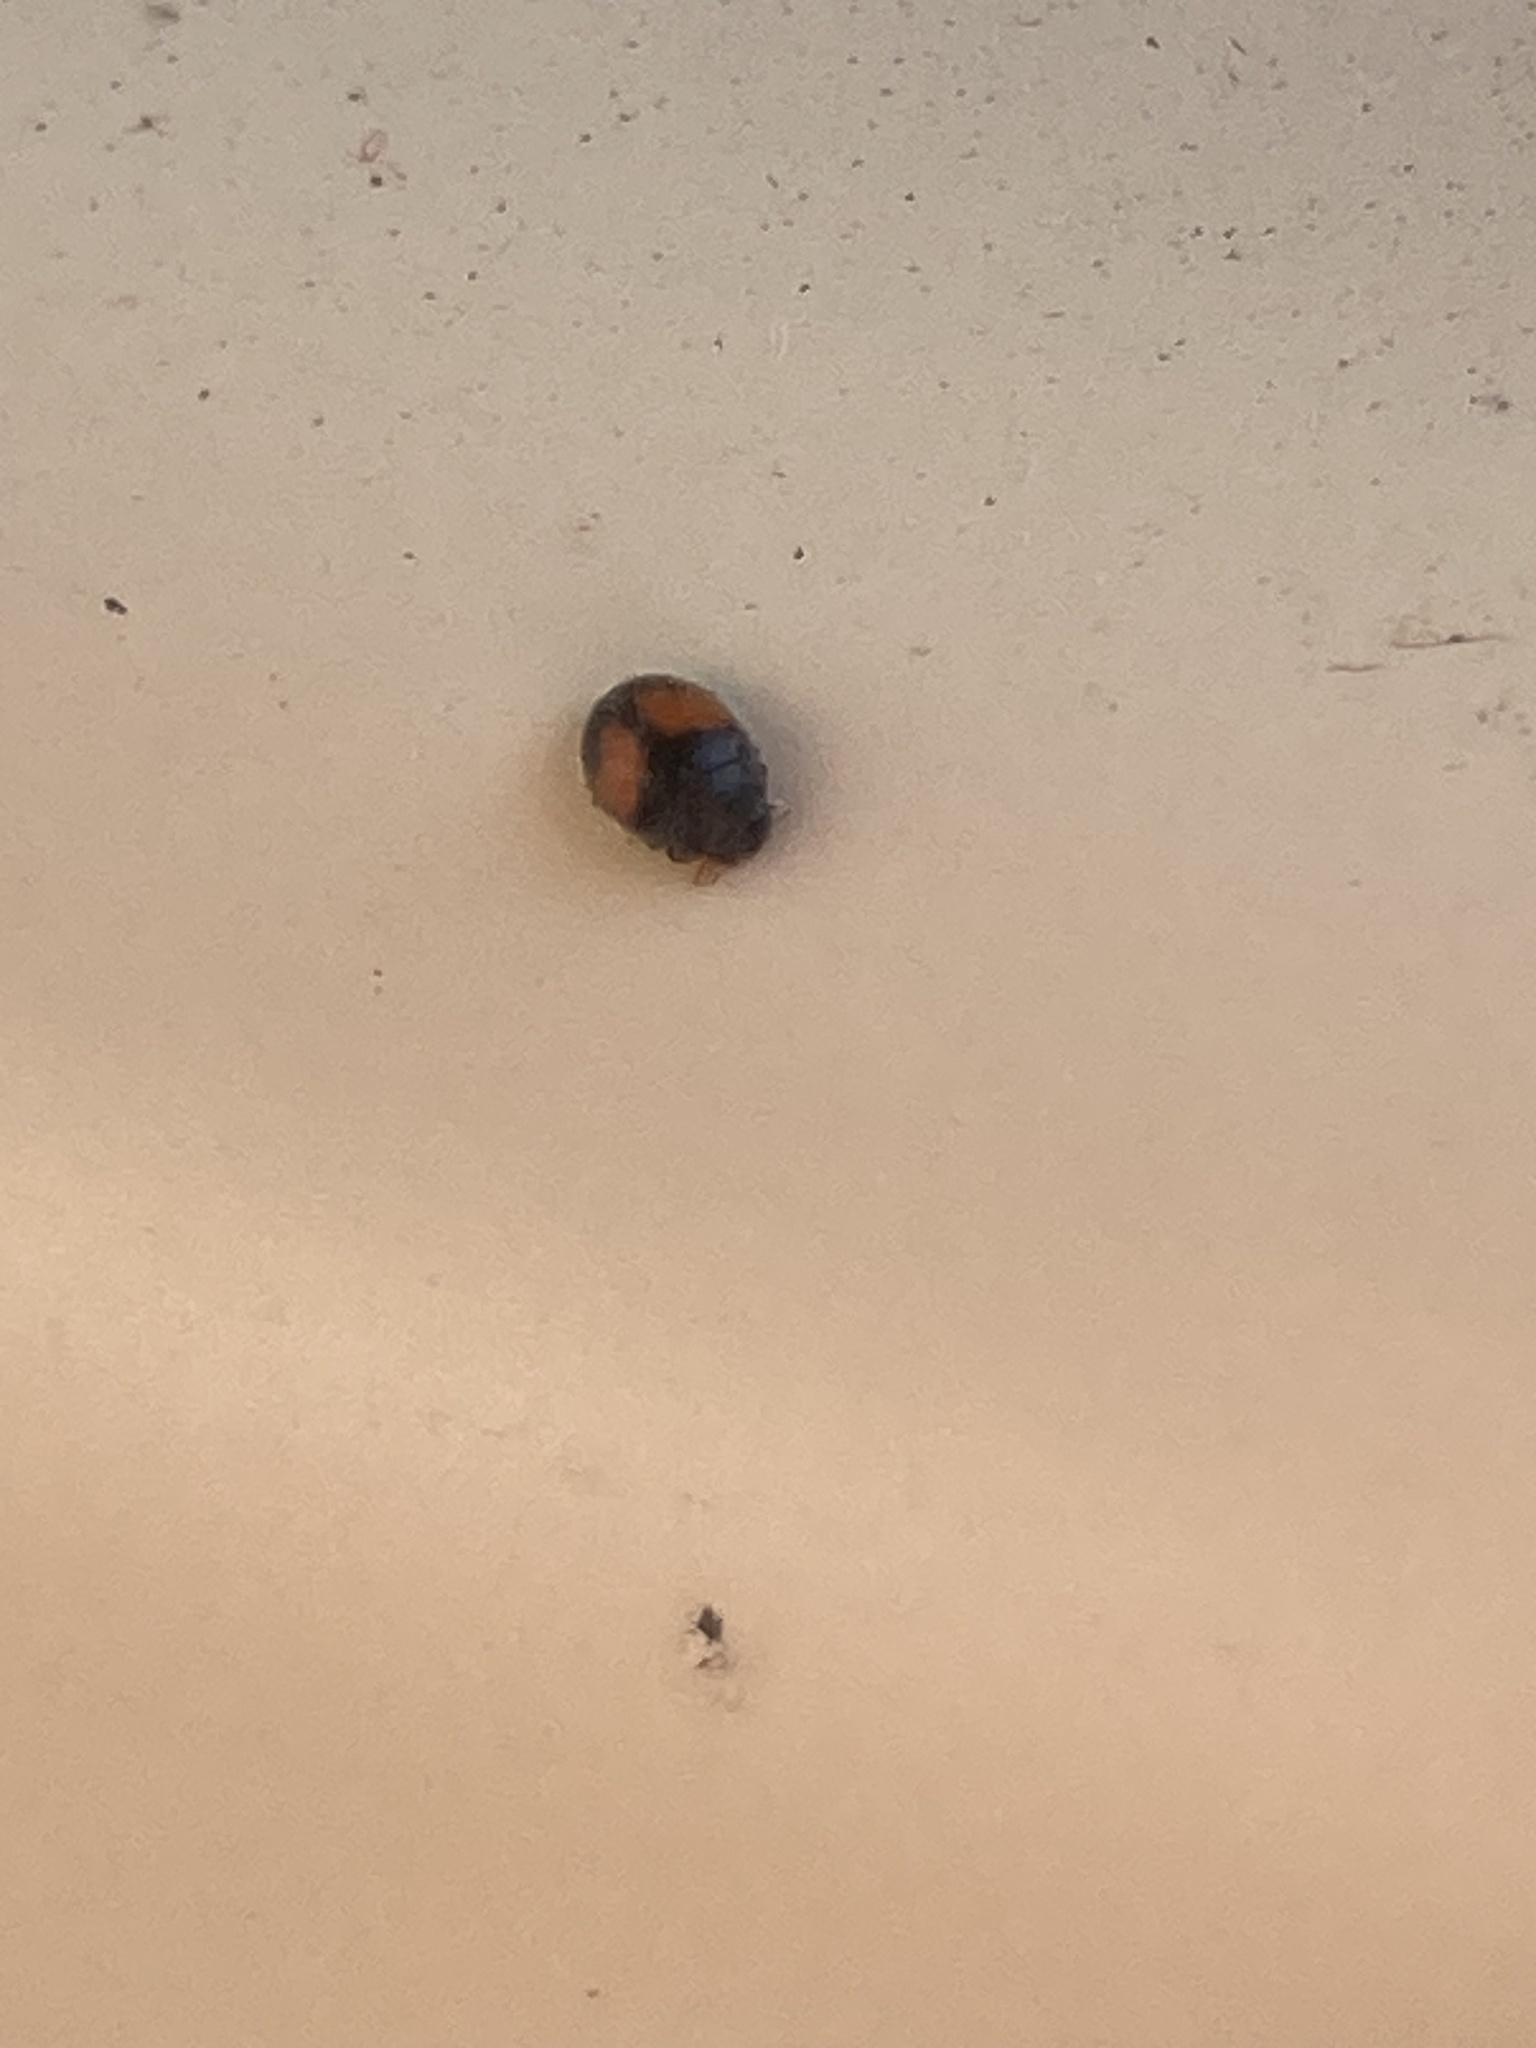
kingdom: Animalia
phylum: Arthropoda
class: Insecta
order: Coleoptera
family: Coccinellidae
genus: Scymnus
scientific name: Scymnus notescens
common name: Minute two-spotted ladybird beetle
